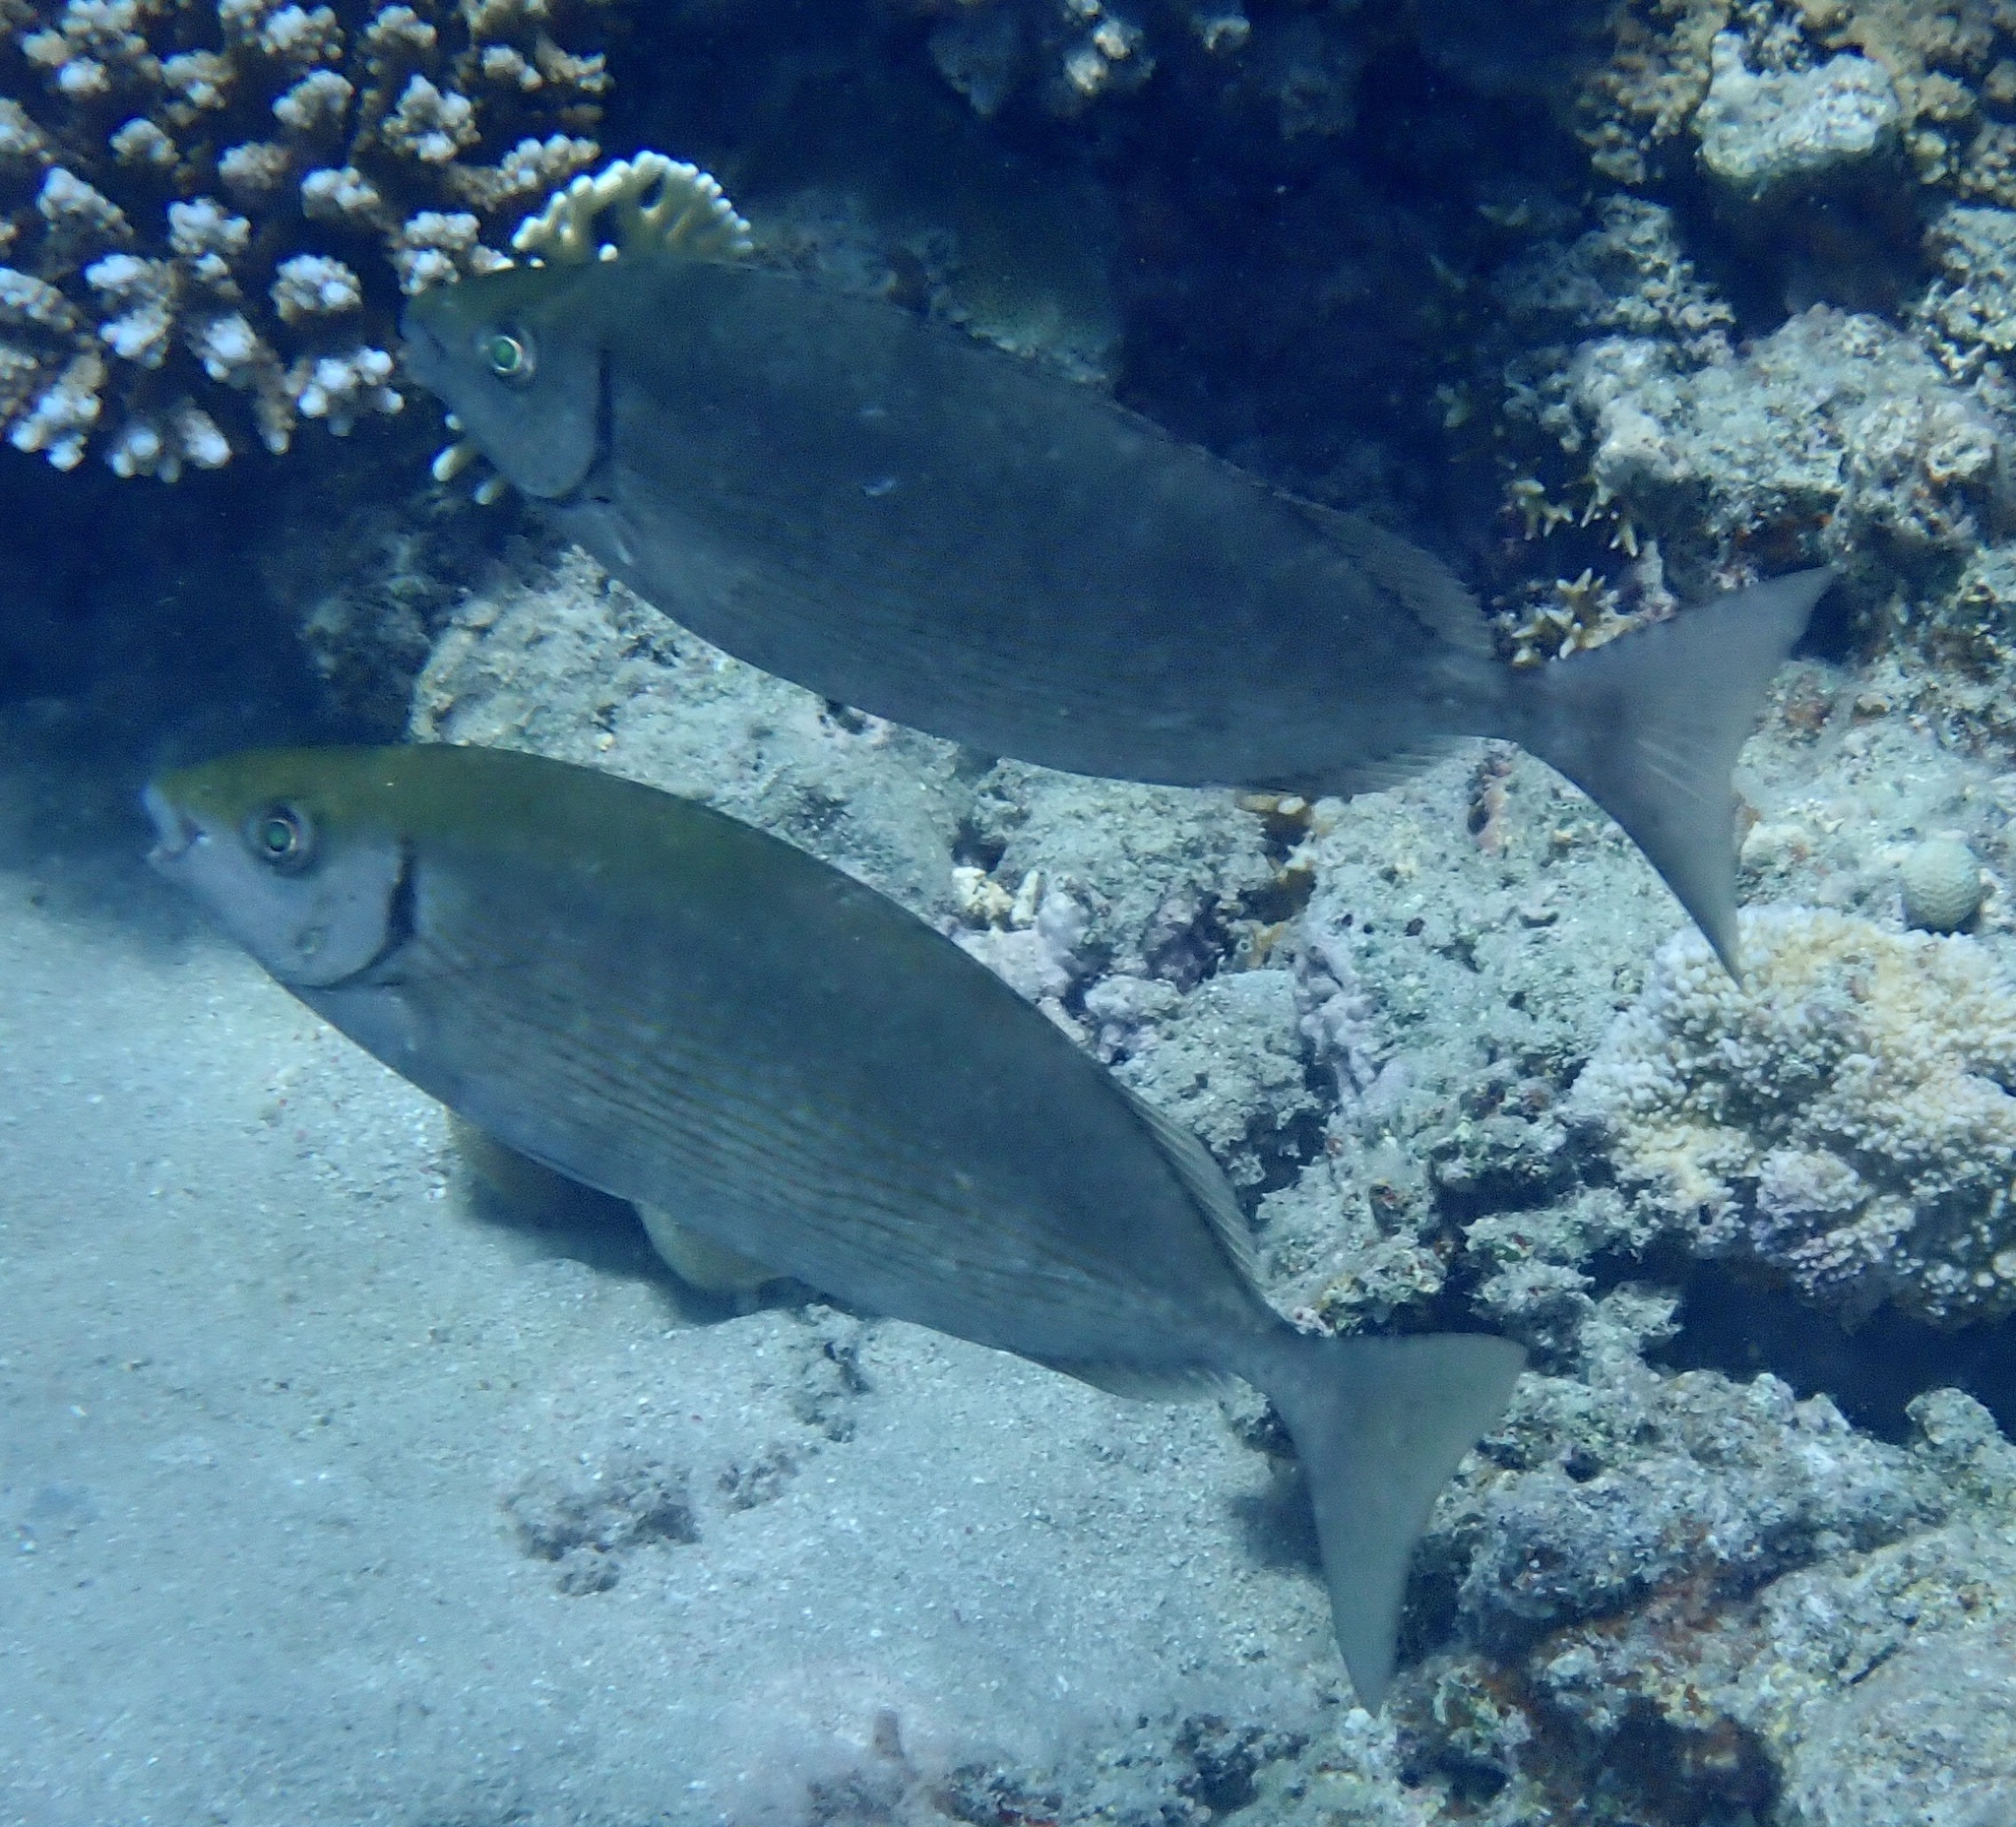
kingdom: Animalia
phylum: Chordata
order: Perciformes
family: Siganidae
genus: Siganus
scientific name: Siganus rivulatus
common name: Marbled spinefoot
